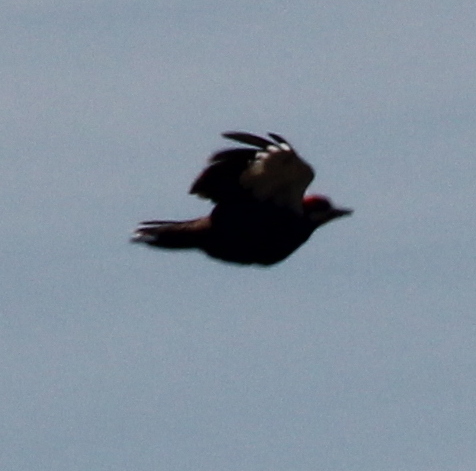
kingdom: Animalia
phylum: Chordata
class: Aves
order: Piciformes
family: Picidae
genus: Dryocopus
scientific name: Dryocopus pileatus
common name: Pileated woodpecker
